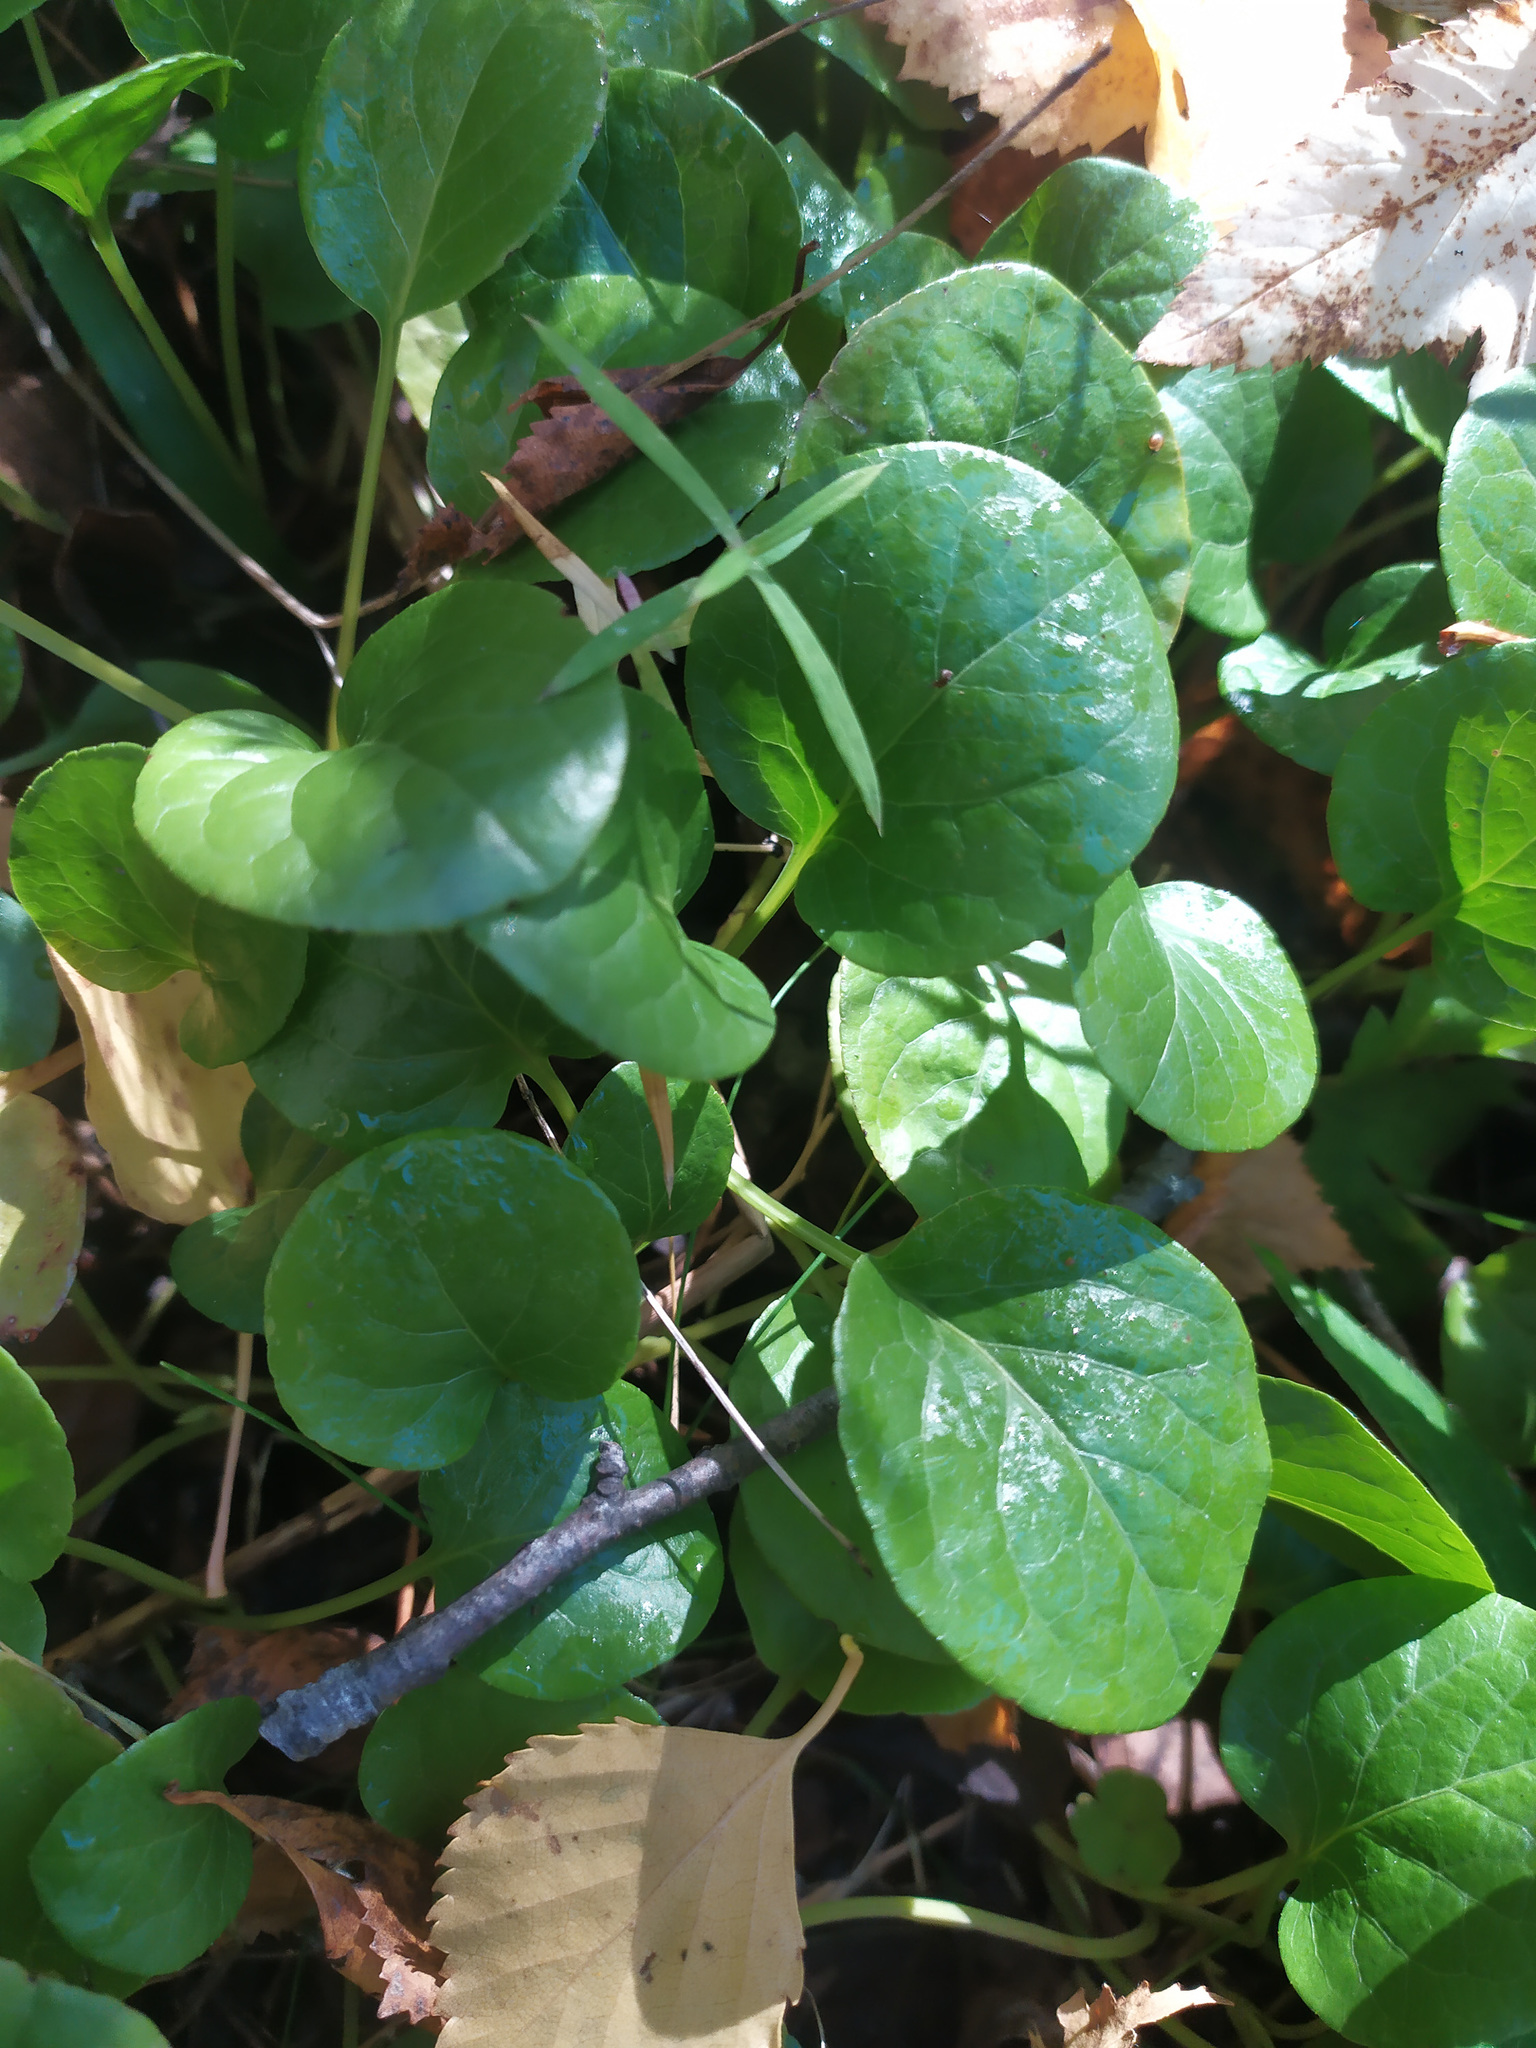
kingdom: Plantae
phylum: Tracheophyta
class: Magnoliopsida
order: Ericales
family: Ericaceae
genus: Pyrola
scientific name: Pyrola
